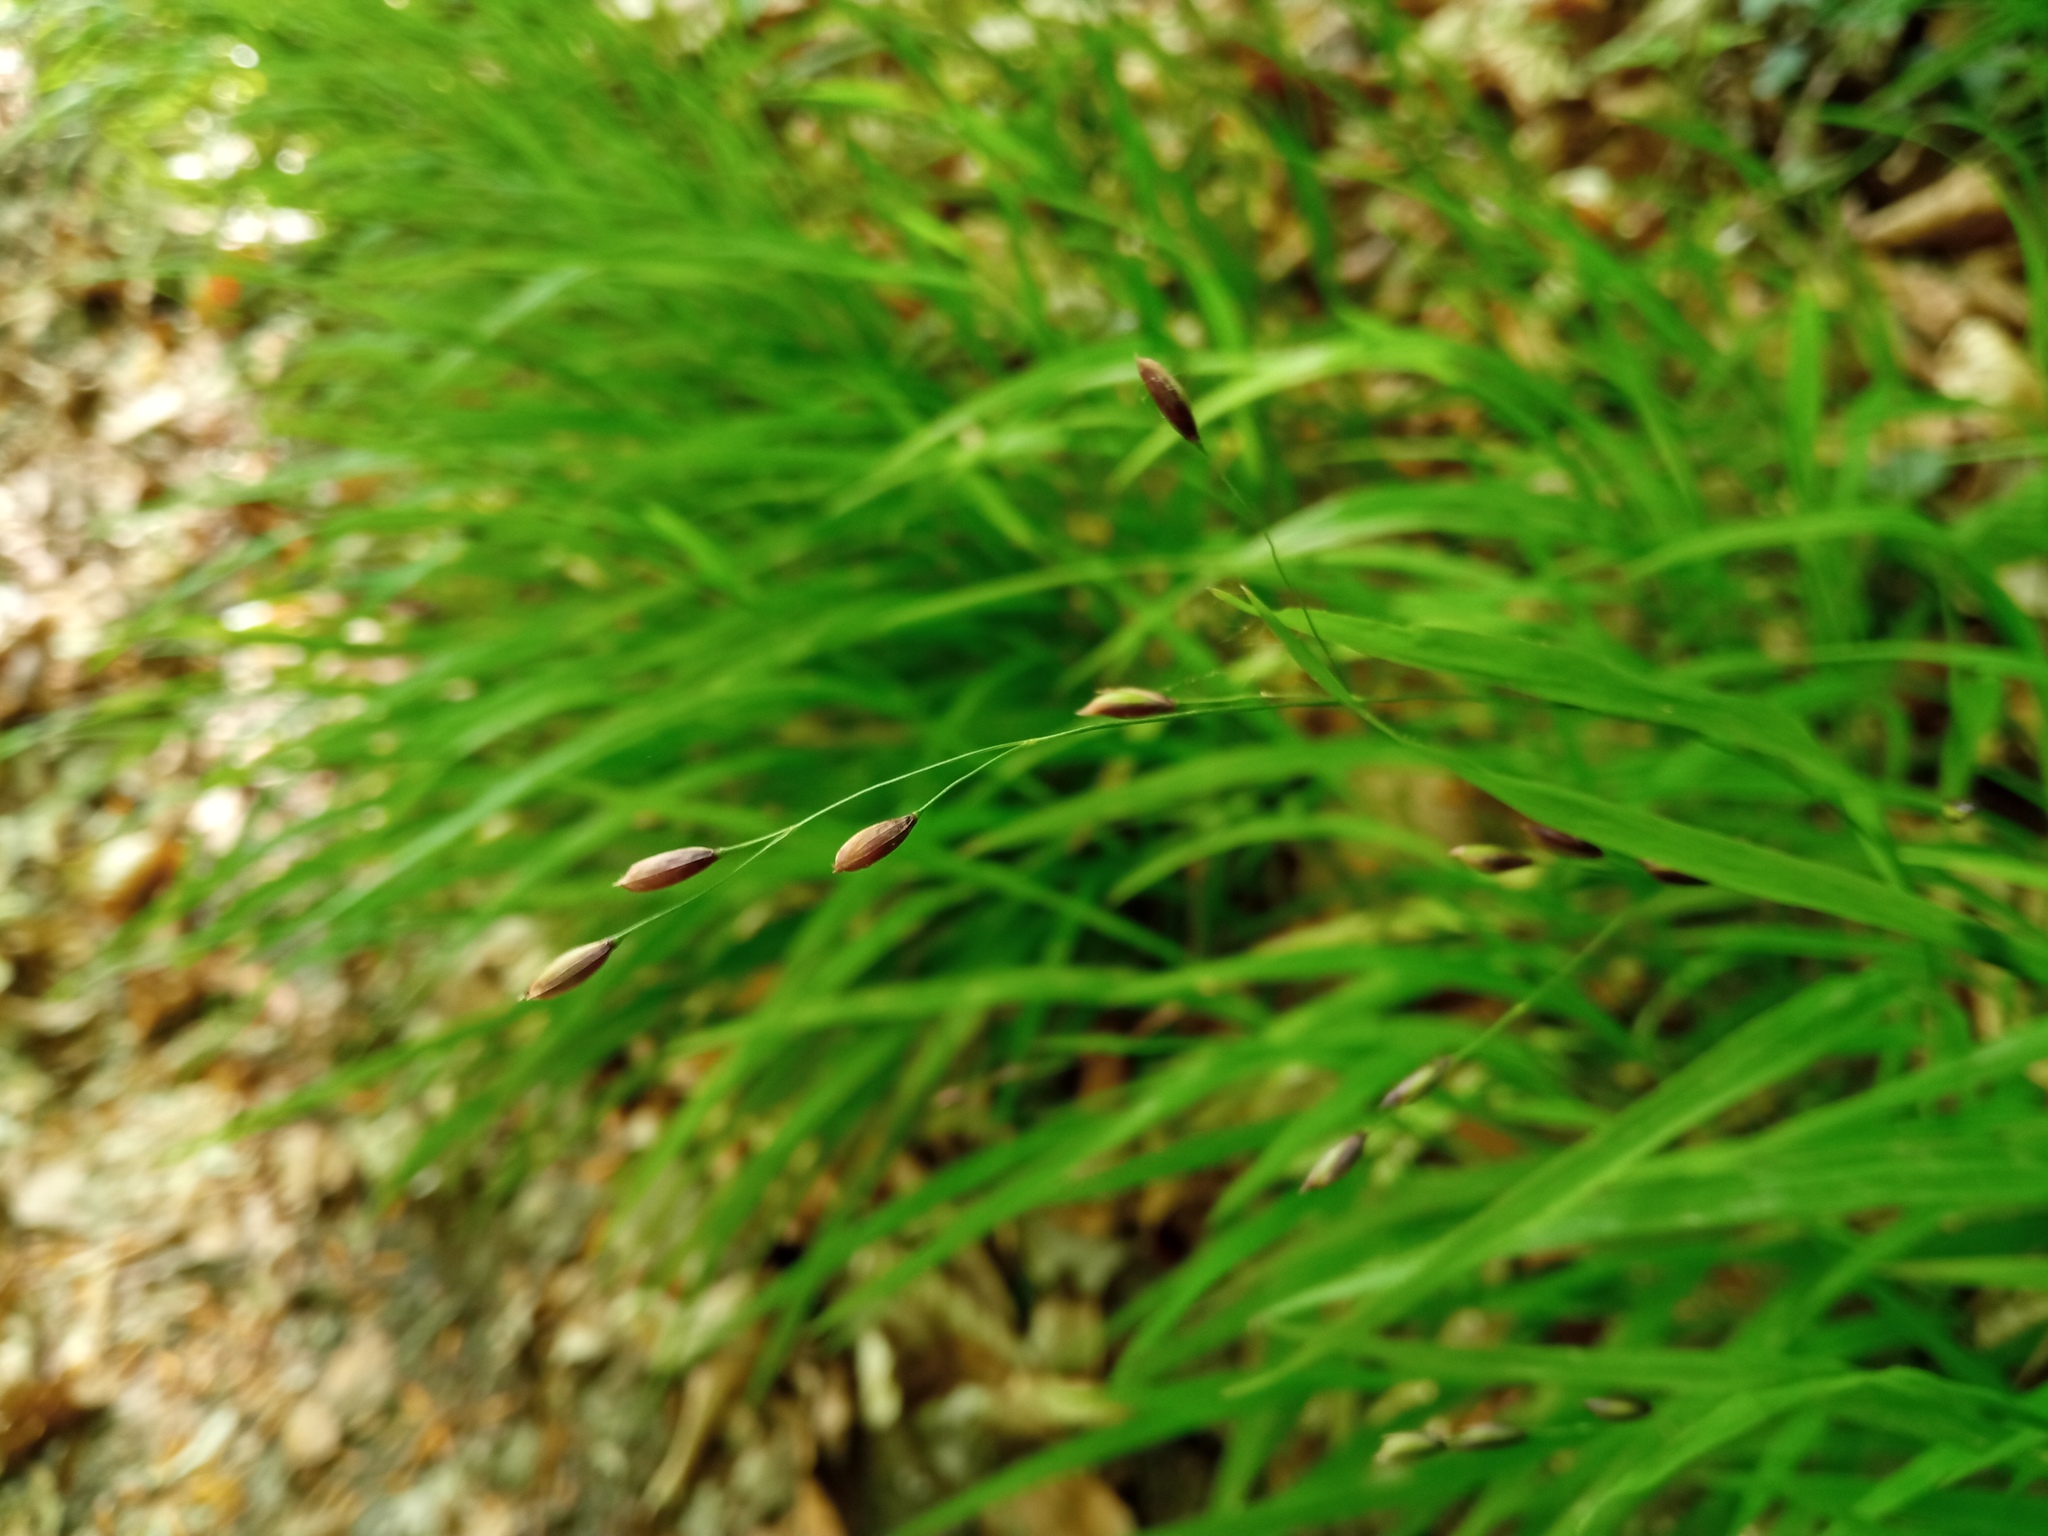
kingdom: Plantae
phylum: Tracheophyta
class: Liliopsida
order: Poales
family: Poaceae
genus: Melica
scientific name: Melica uniflora
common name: Wood melick
